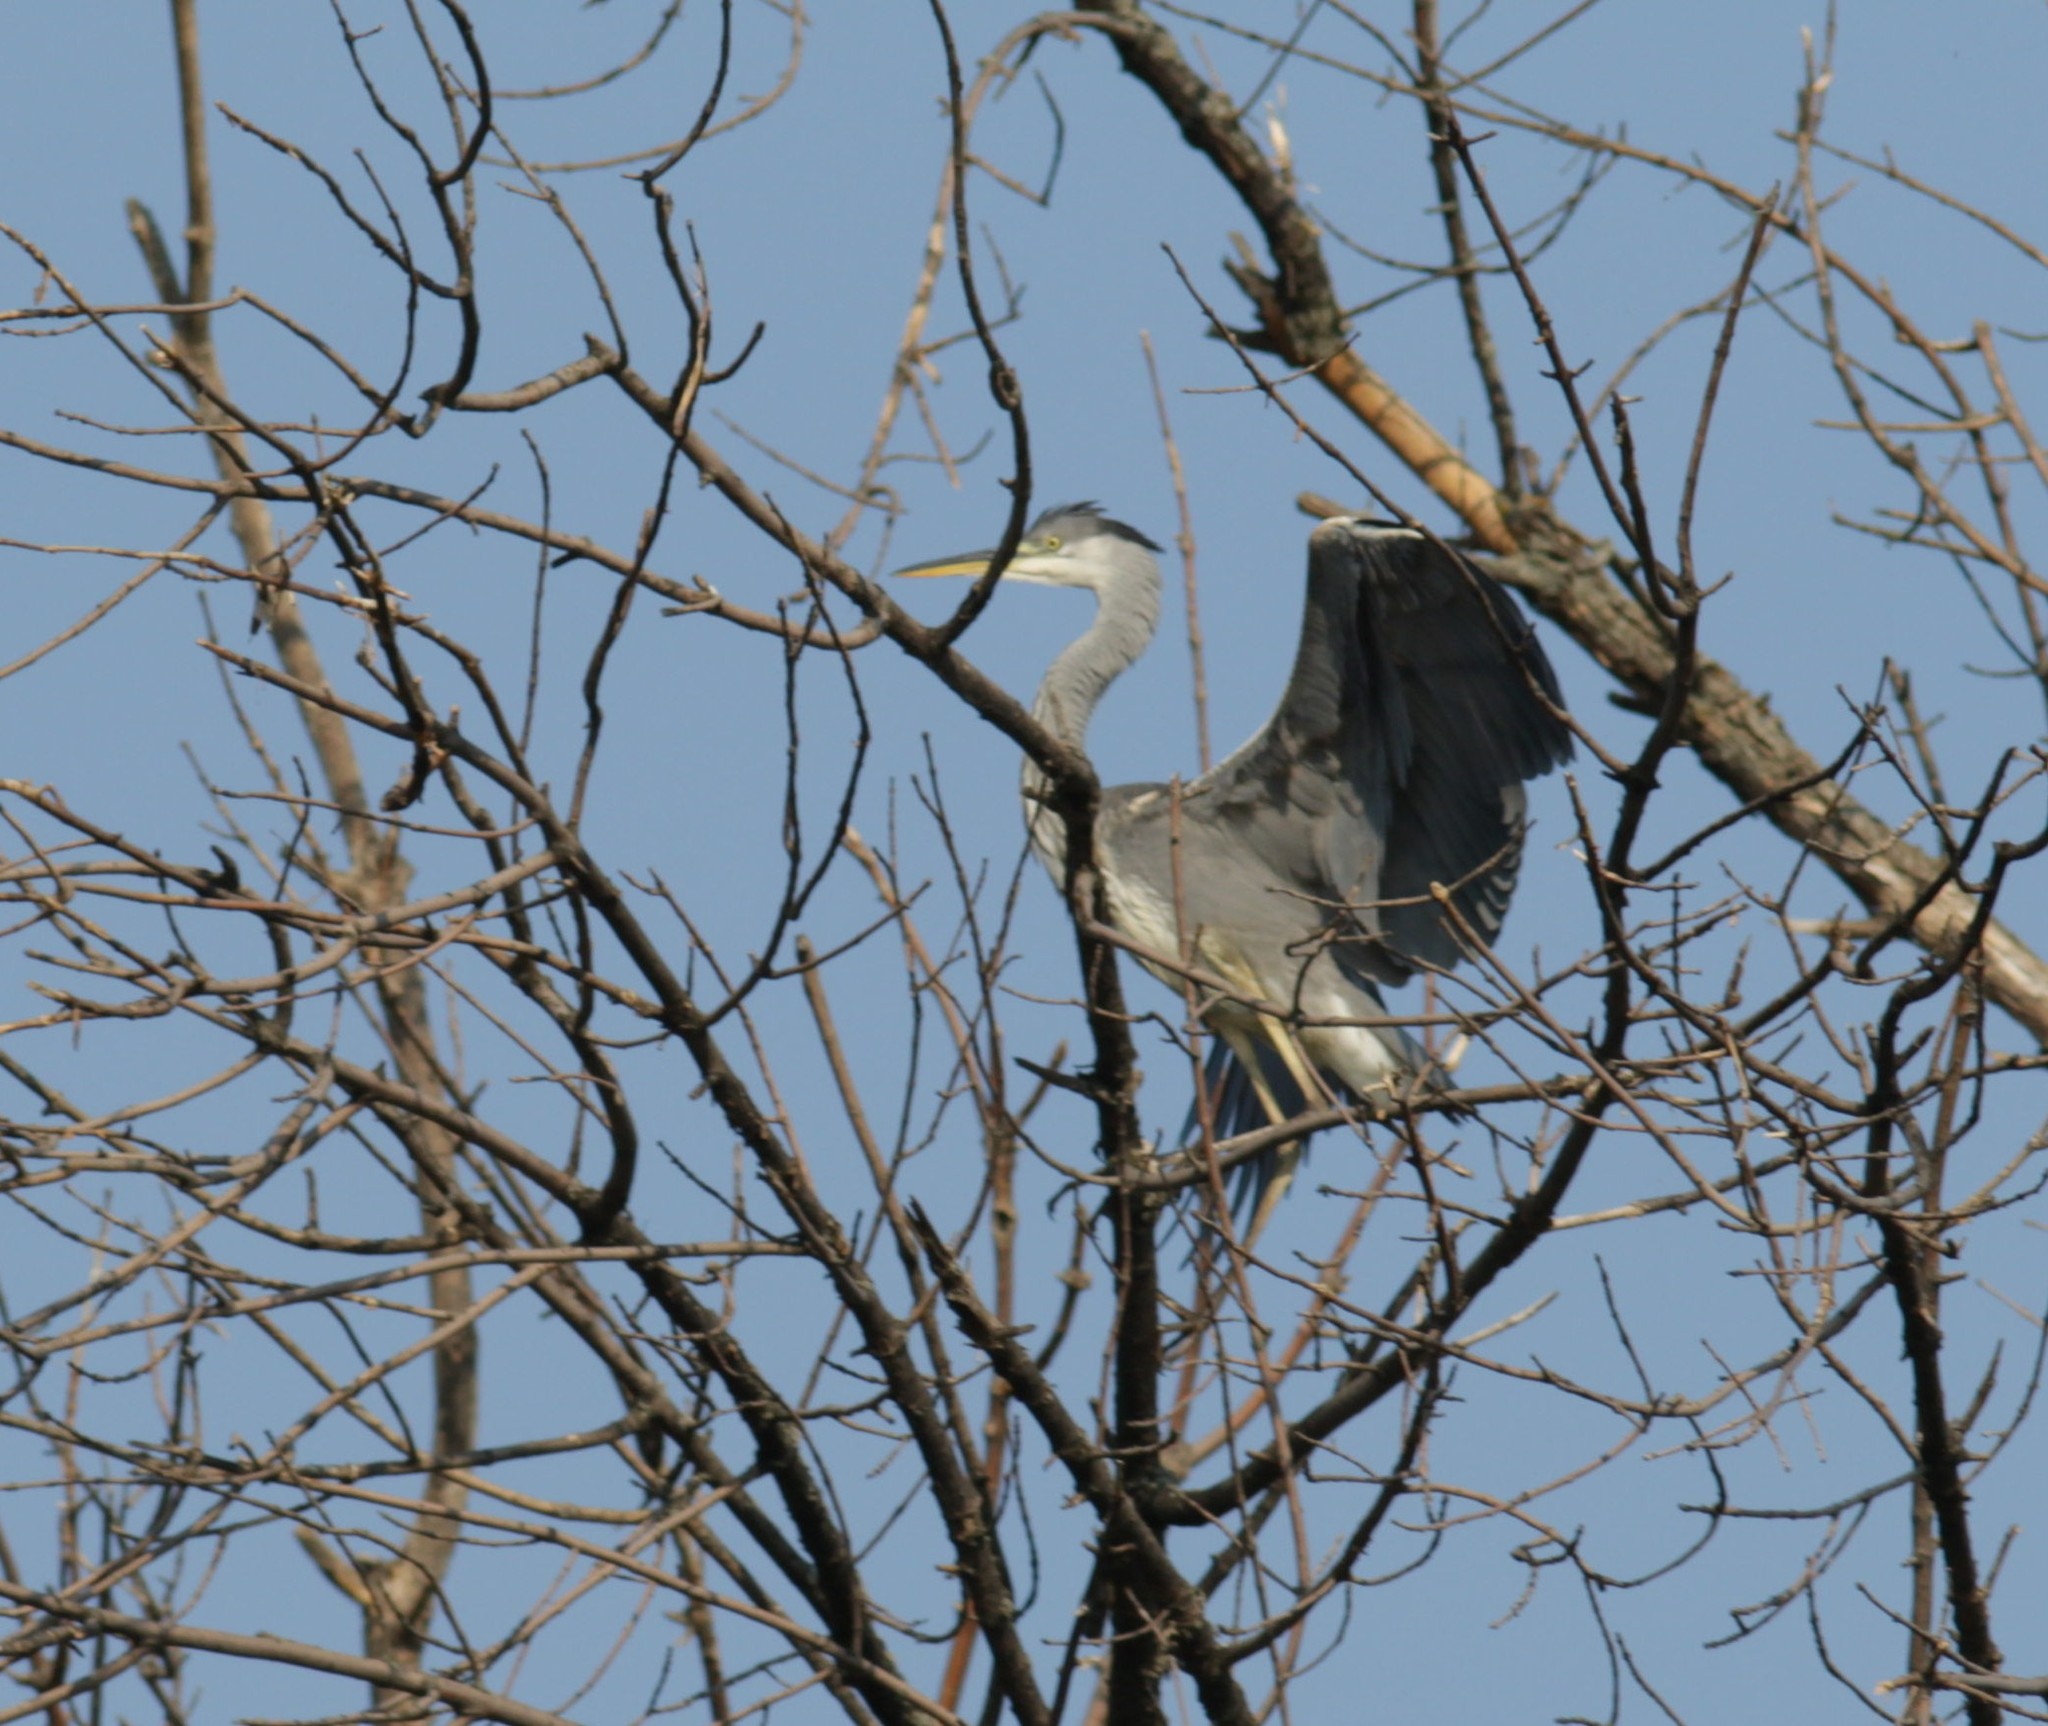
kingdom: Animalia
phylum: Chordata
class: Aves
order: Pelecaniformes
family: Ardeidae
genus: Ardea
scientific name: Ardea cinerea
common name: Grey heron
